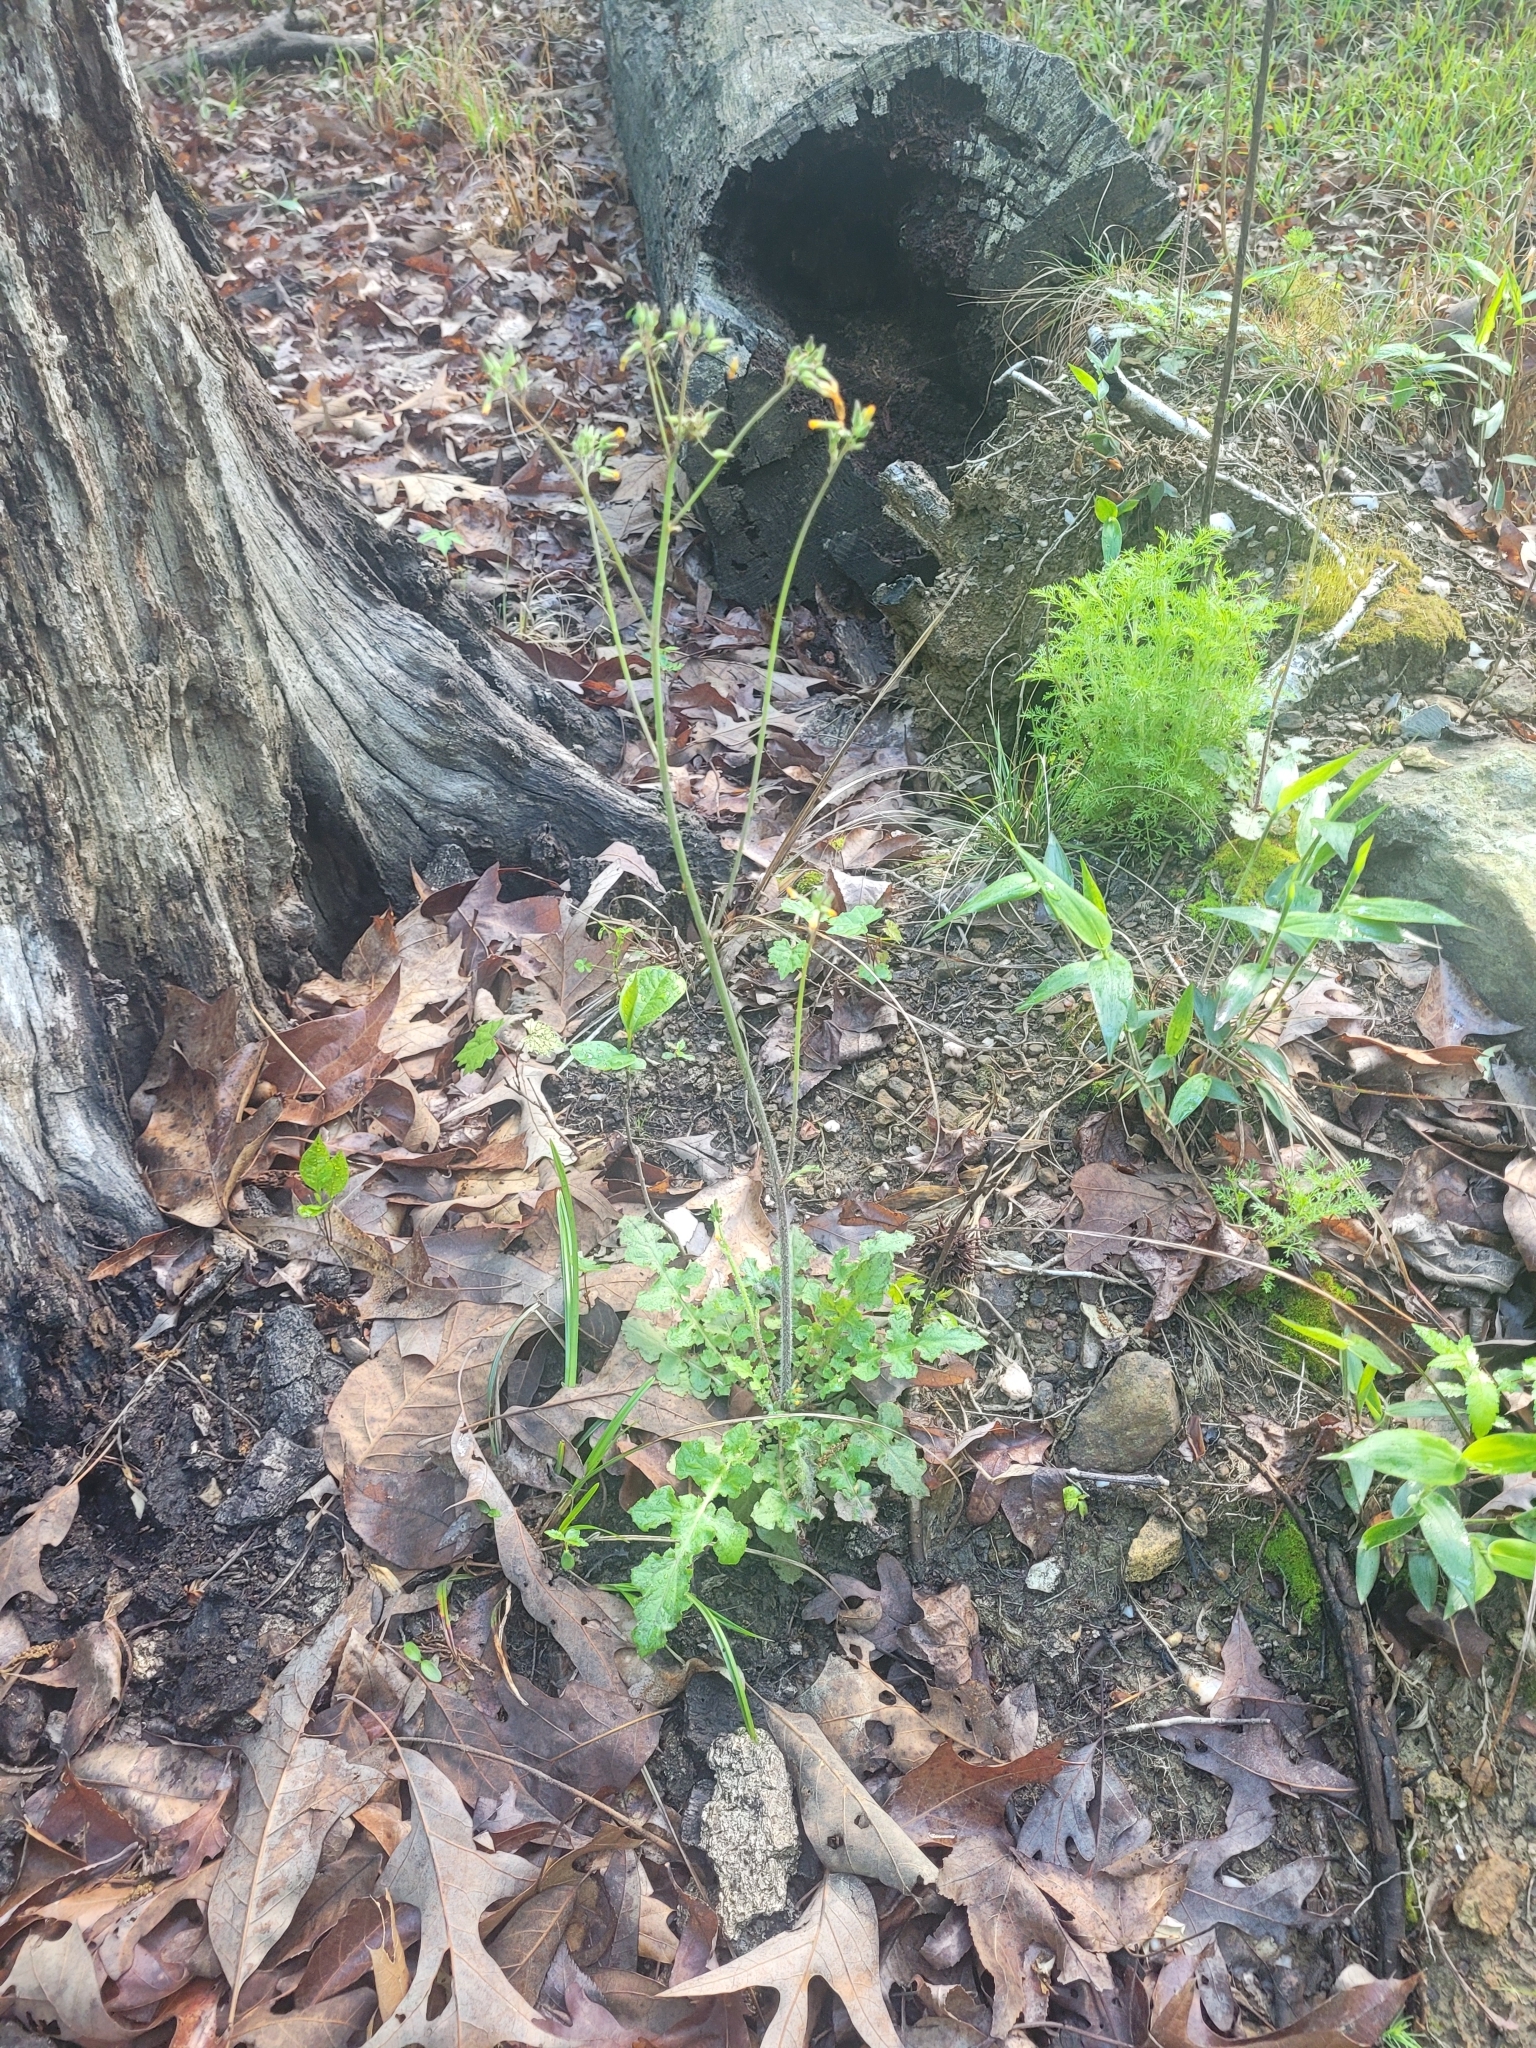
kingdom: Plantae
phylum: Tracheophyta
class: Magnoliopsida
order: Asterales
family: Asteraceae
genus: Youngia
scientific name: Youngia japonica
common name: Oriental false hawksbeard
